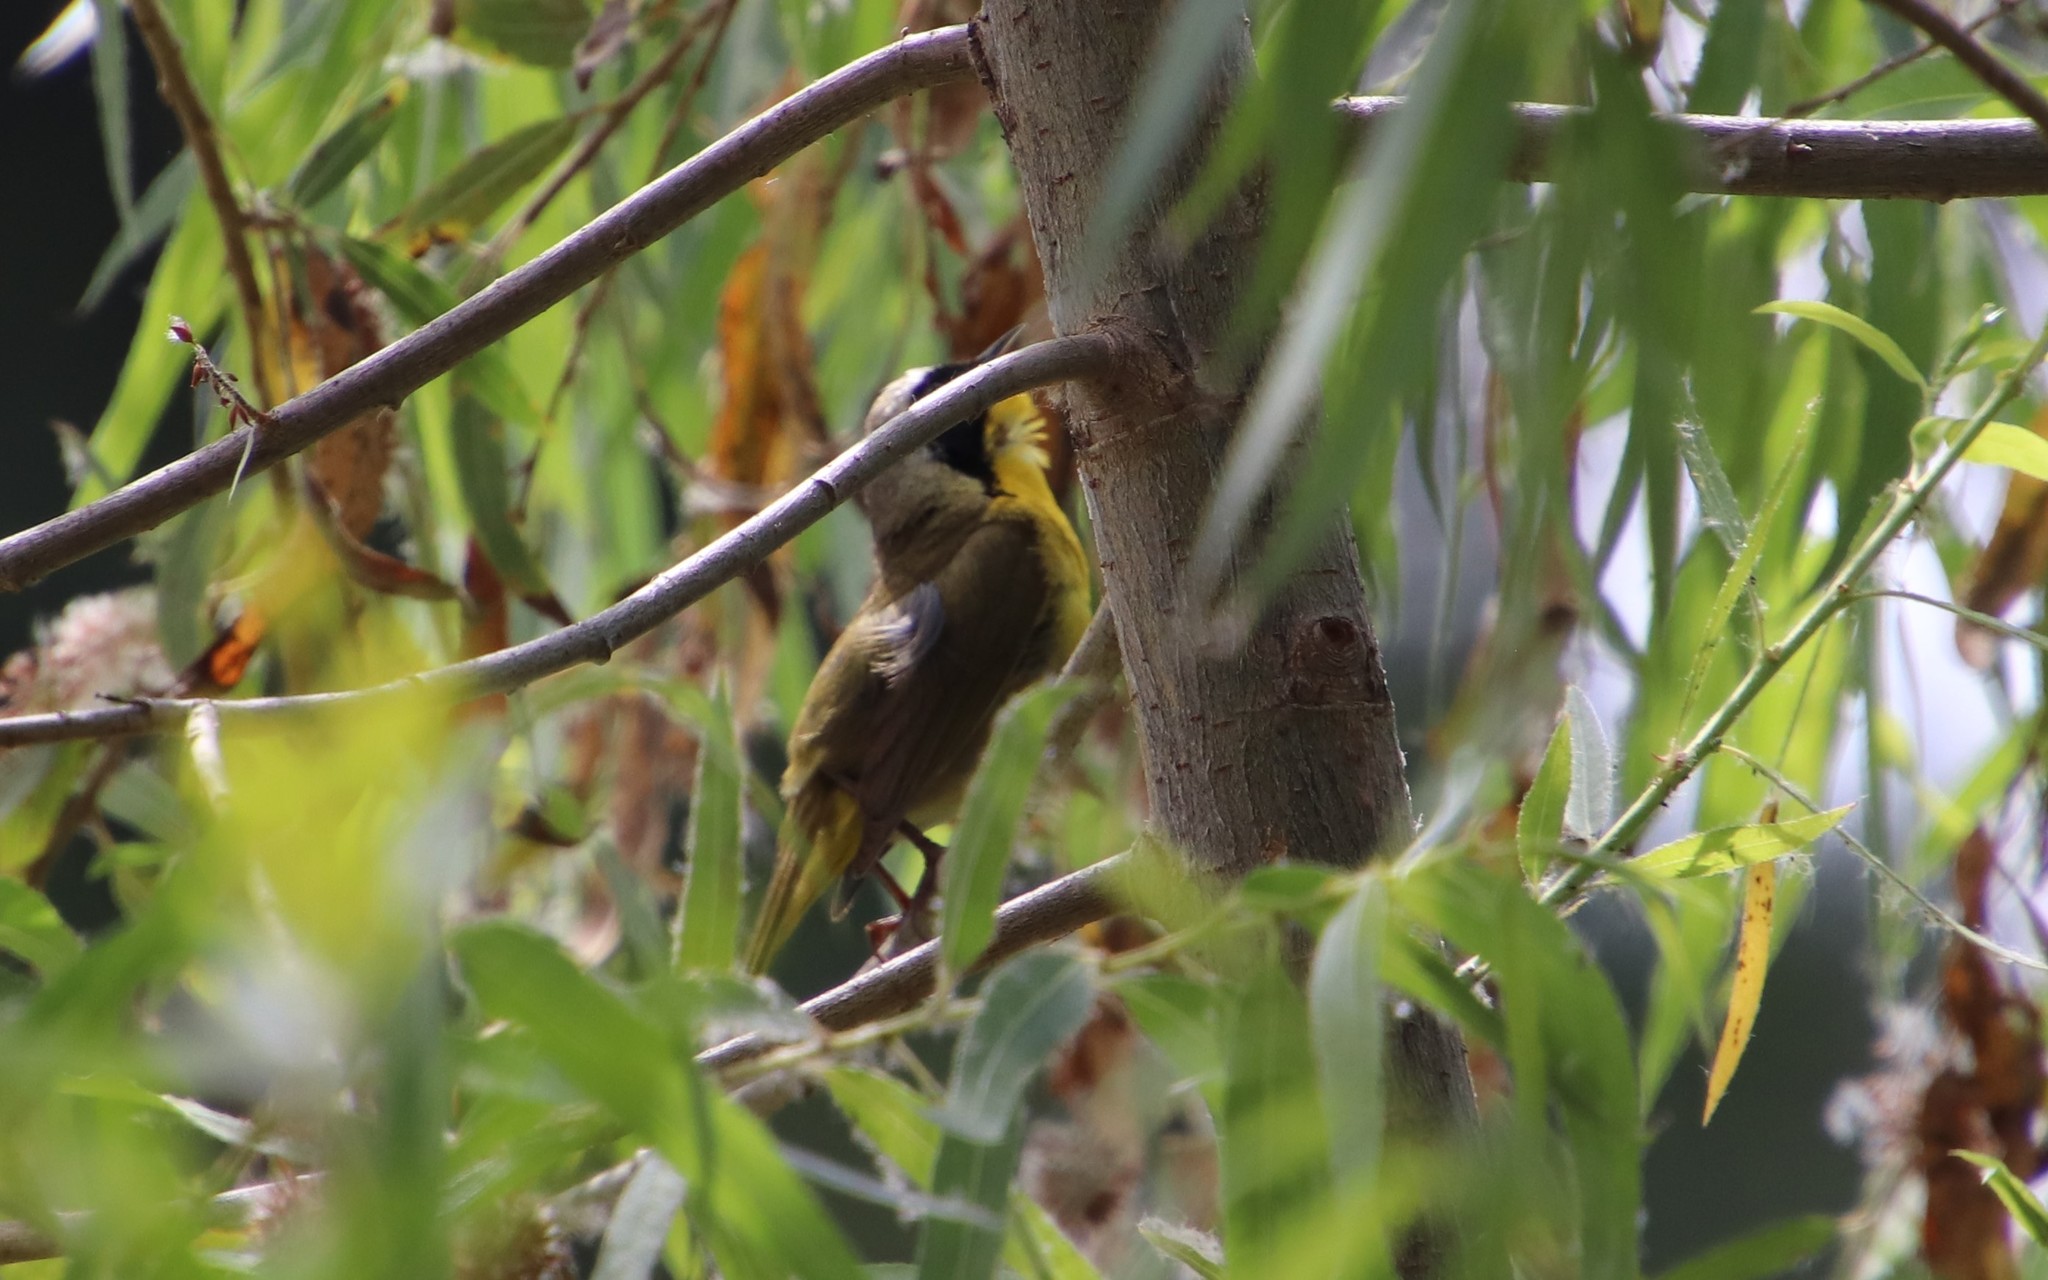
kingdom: Animalia
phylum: Chordata
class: Aves
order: Passeriformes
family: Parulidae
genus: Geothlypis
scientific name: Geothlypis trichas
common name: Common yellowthroat
